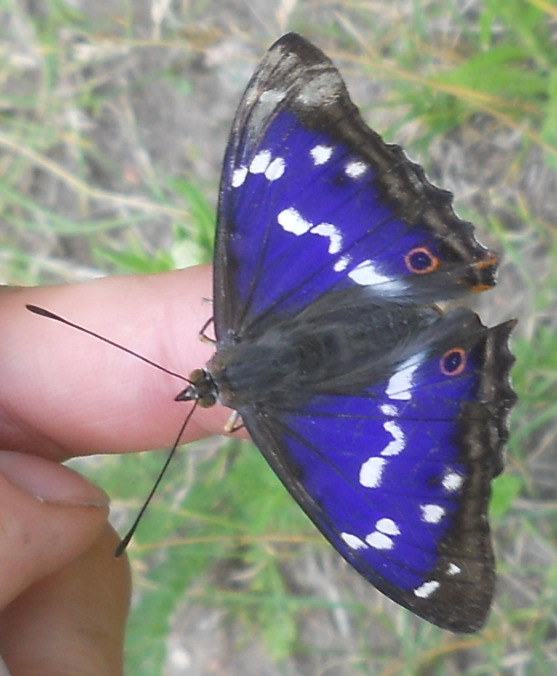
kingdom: Animalia
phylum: Arthropoda
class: Insecta
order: Lepidoptera
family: Nymphalidae
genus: Apatura
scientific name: Apatura iris
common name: Purple emperor
